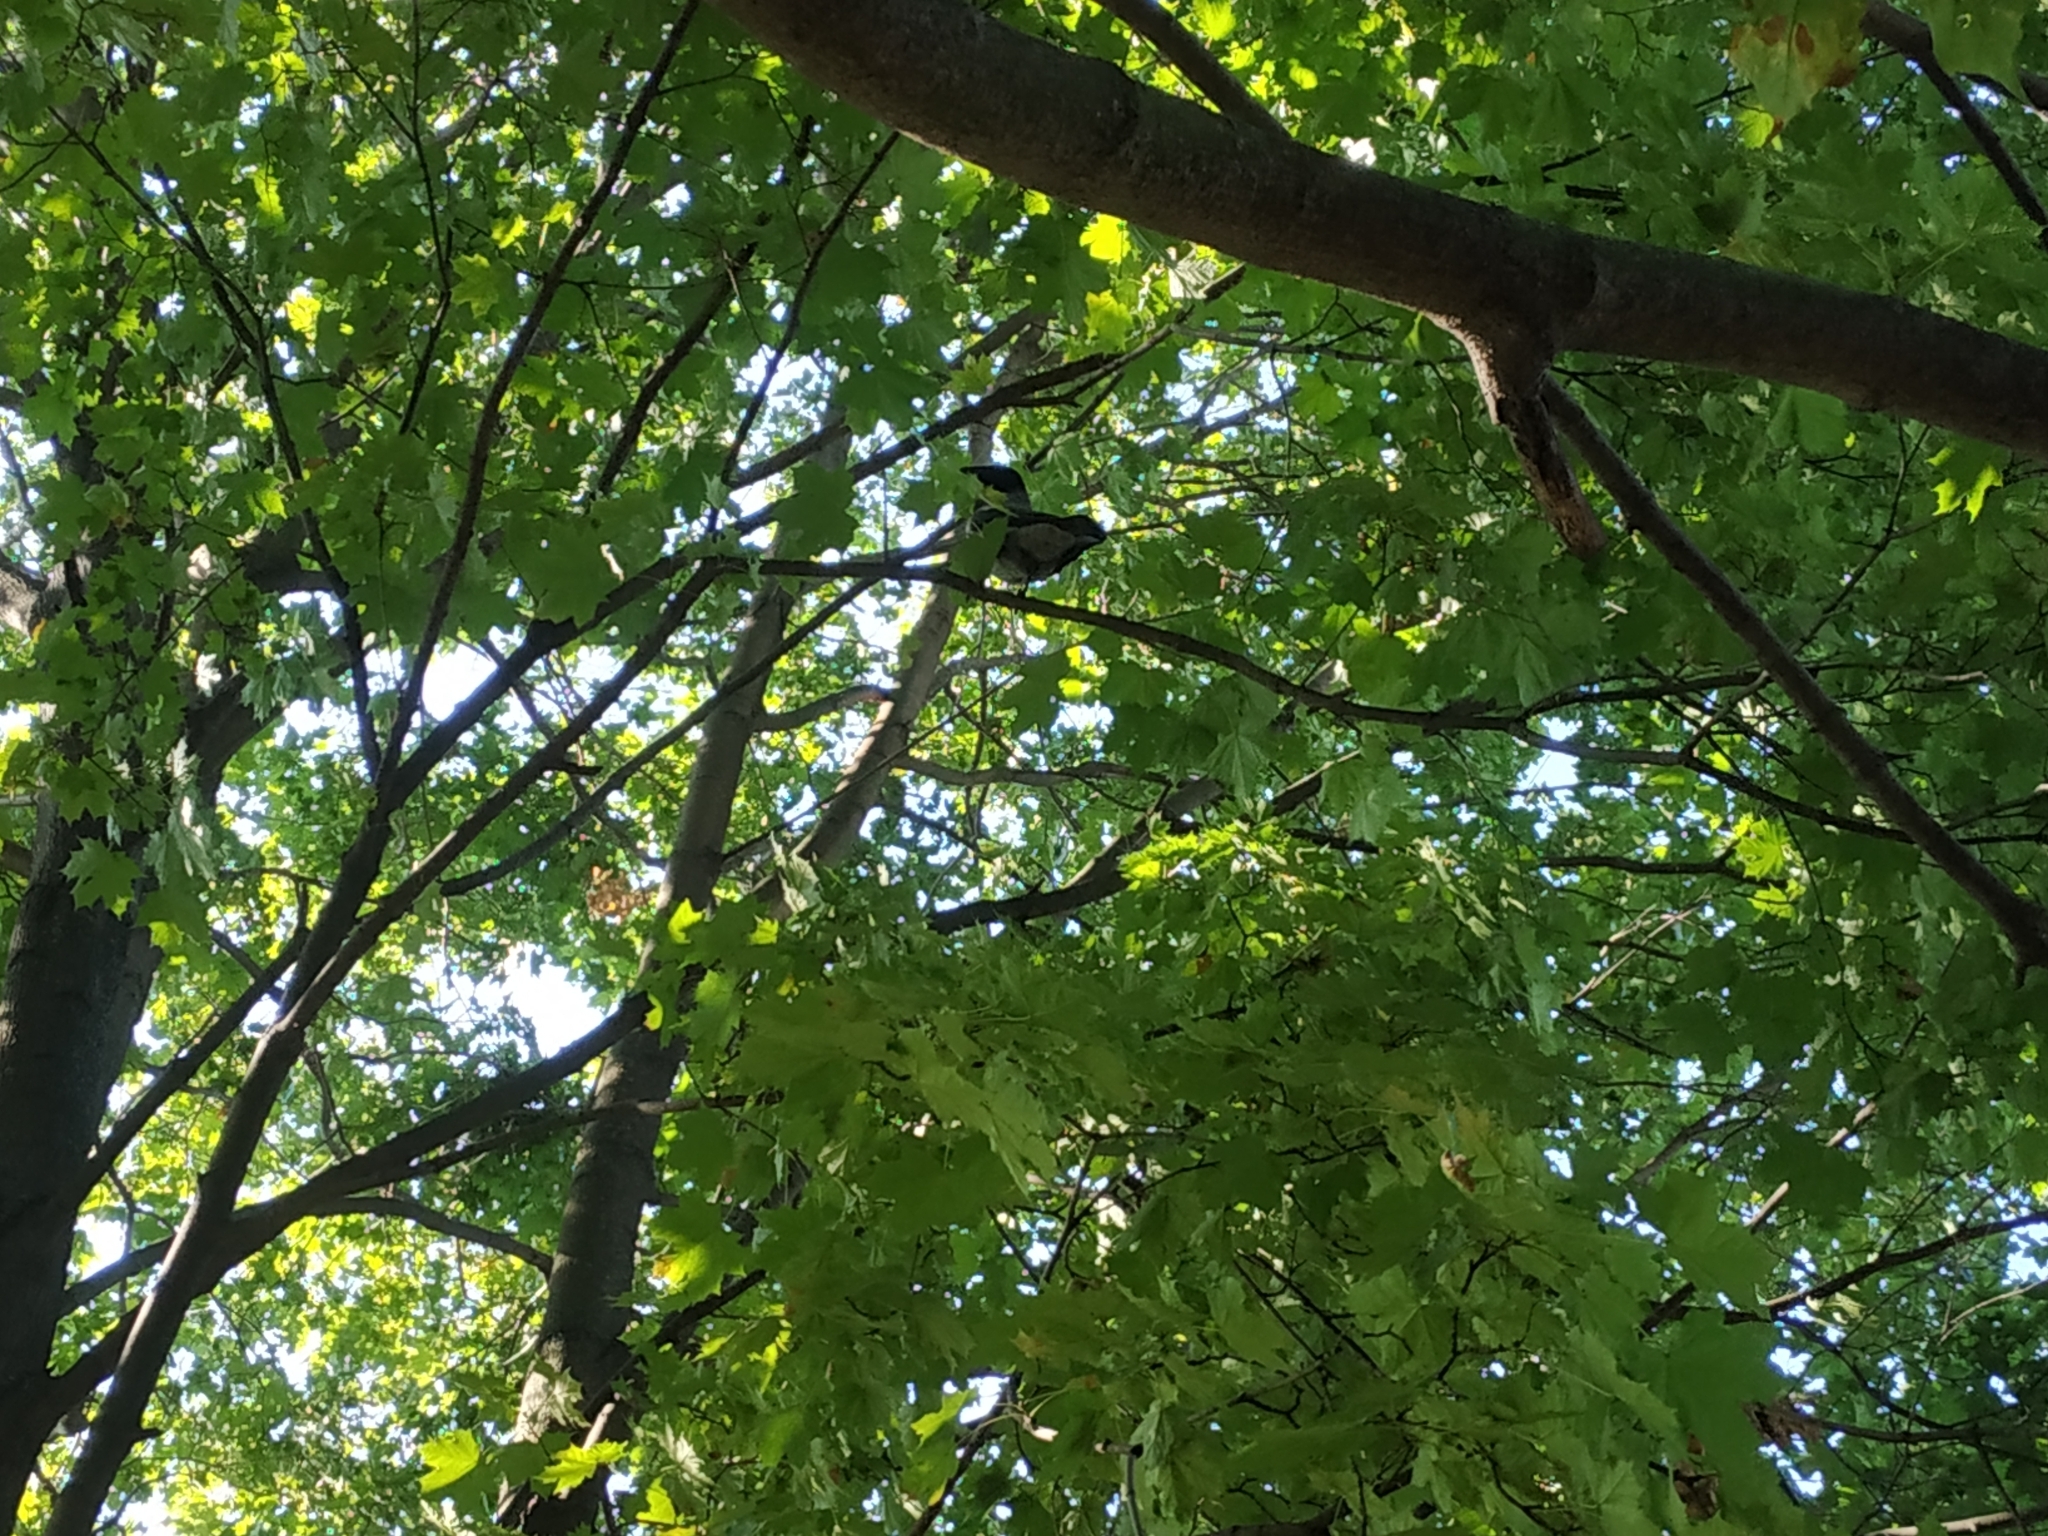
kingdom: Animalia
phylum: Chordata
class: Aves
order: Passeriformes
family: Corvidae
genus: Corvus
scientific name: Corvus cornix
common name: Hooded crow
